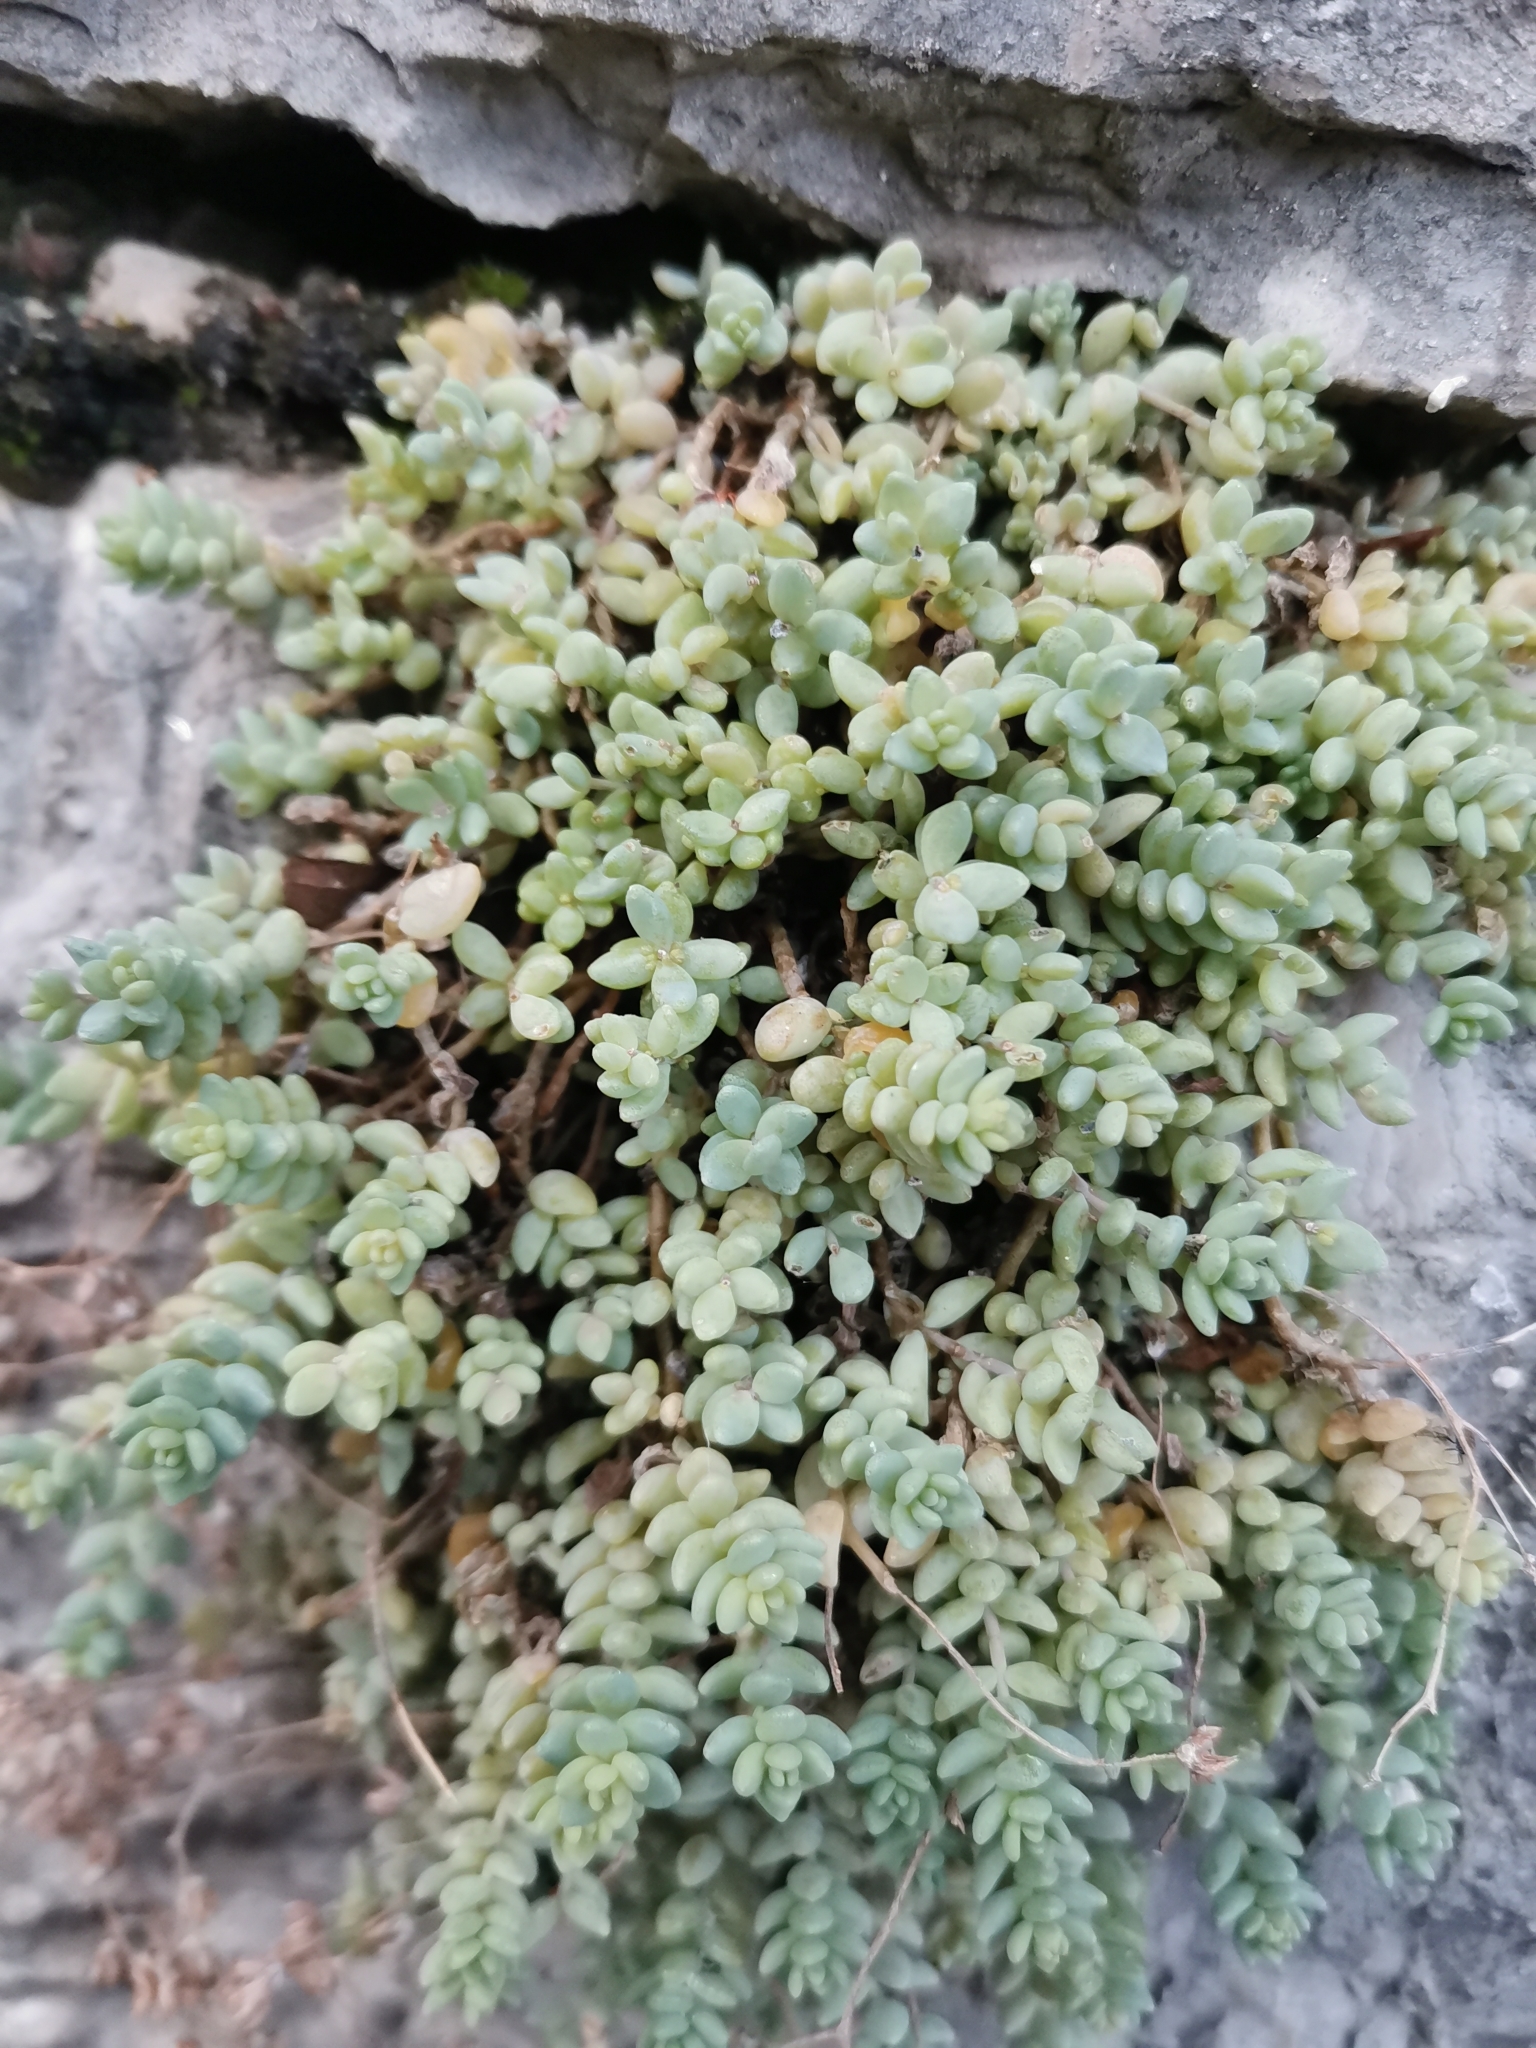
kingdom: Plantae
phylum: Tracheophyta
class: Magnoliopsida
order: Saxifragales
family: Crassulaceae
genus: Sedum
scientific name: Sedum dasyphyllum
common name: Thick-leaf stonecrop
